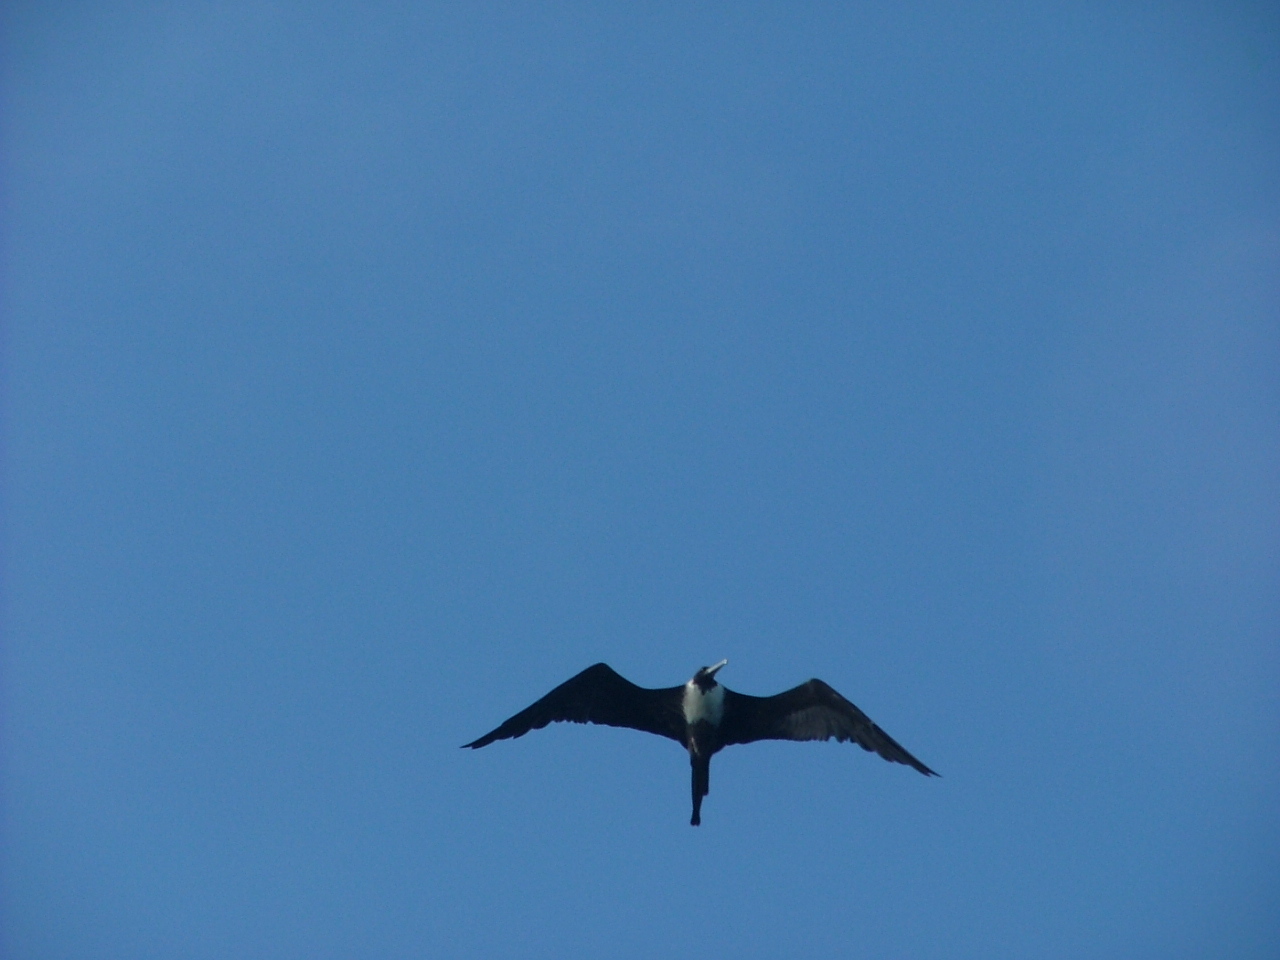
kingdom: Animalia
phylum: Chordata
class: Aves
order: Suliformes
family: Fregatidae
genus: Fregata
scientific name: Fregata magnificens
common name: Magnificent frigatebird
